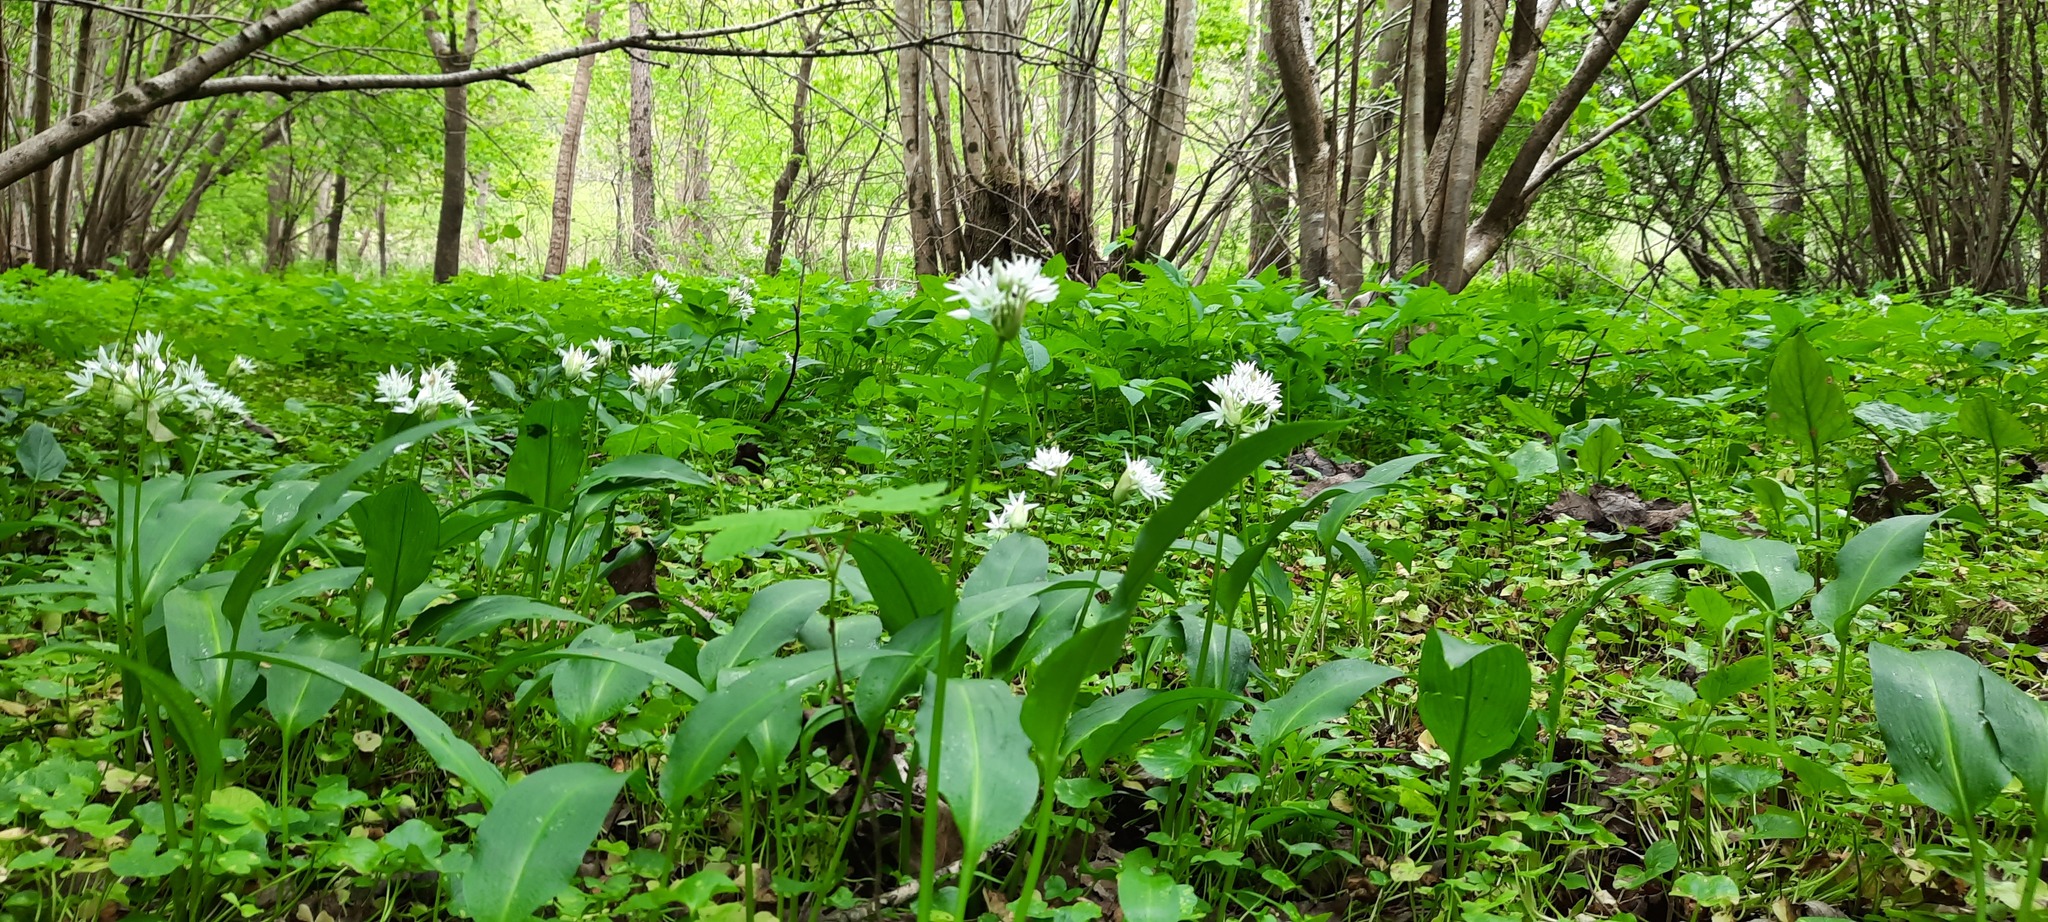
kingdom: Plantae
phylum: Tracheophyta
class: Liliopsida
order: Asparagales
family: Amaryllidaceae
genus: Allium
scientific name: Allium ursinum
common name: Ramsons
